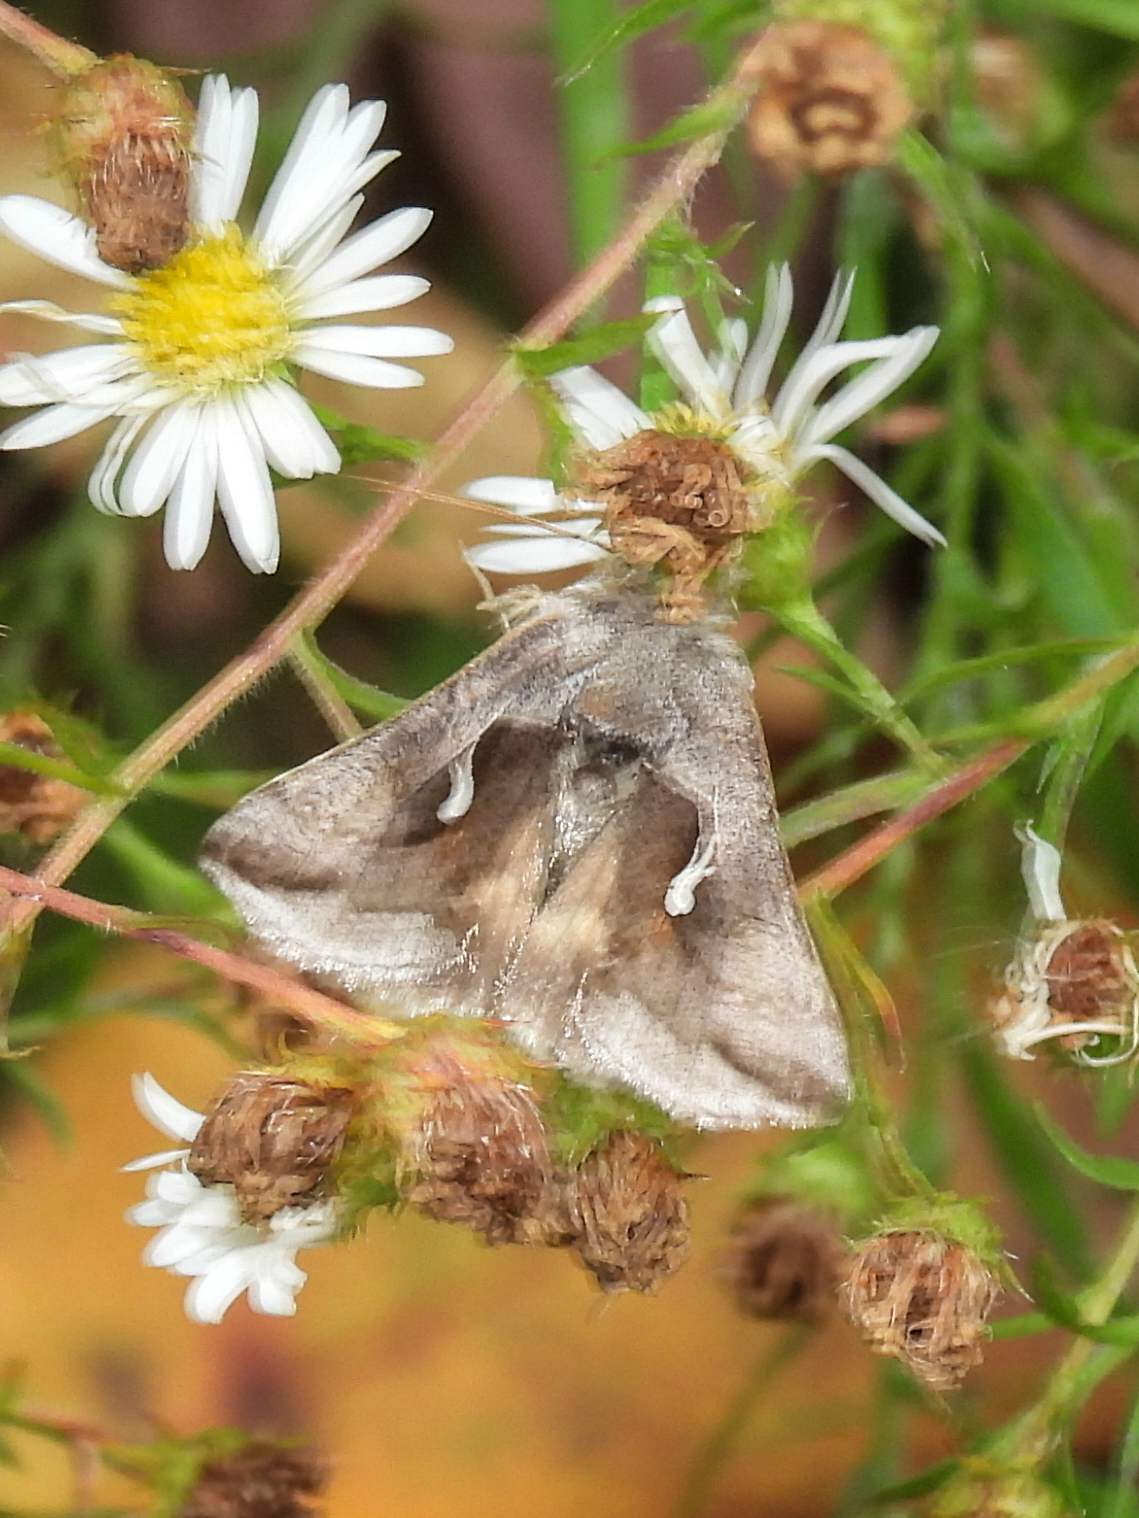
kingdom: Animalia
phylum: Arthropoda
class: Insecta
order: Lepidoptera
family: Noctuidae
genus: Anagrapha
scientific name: Anagrapha falcifera
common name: Celery looper
